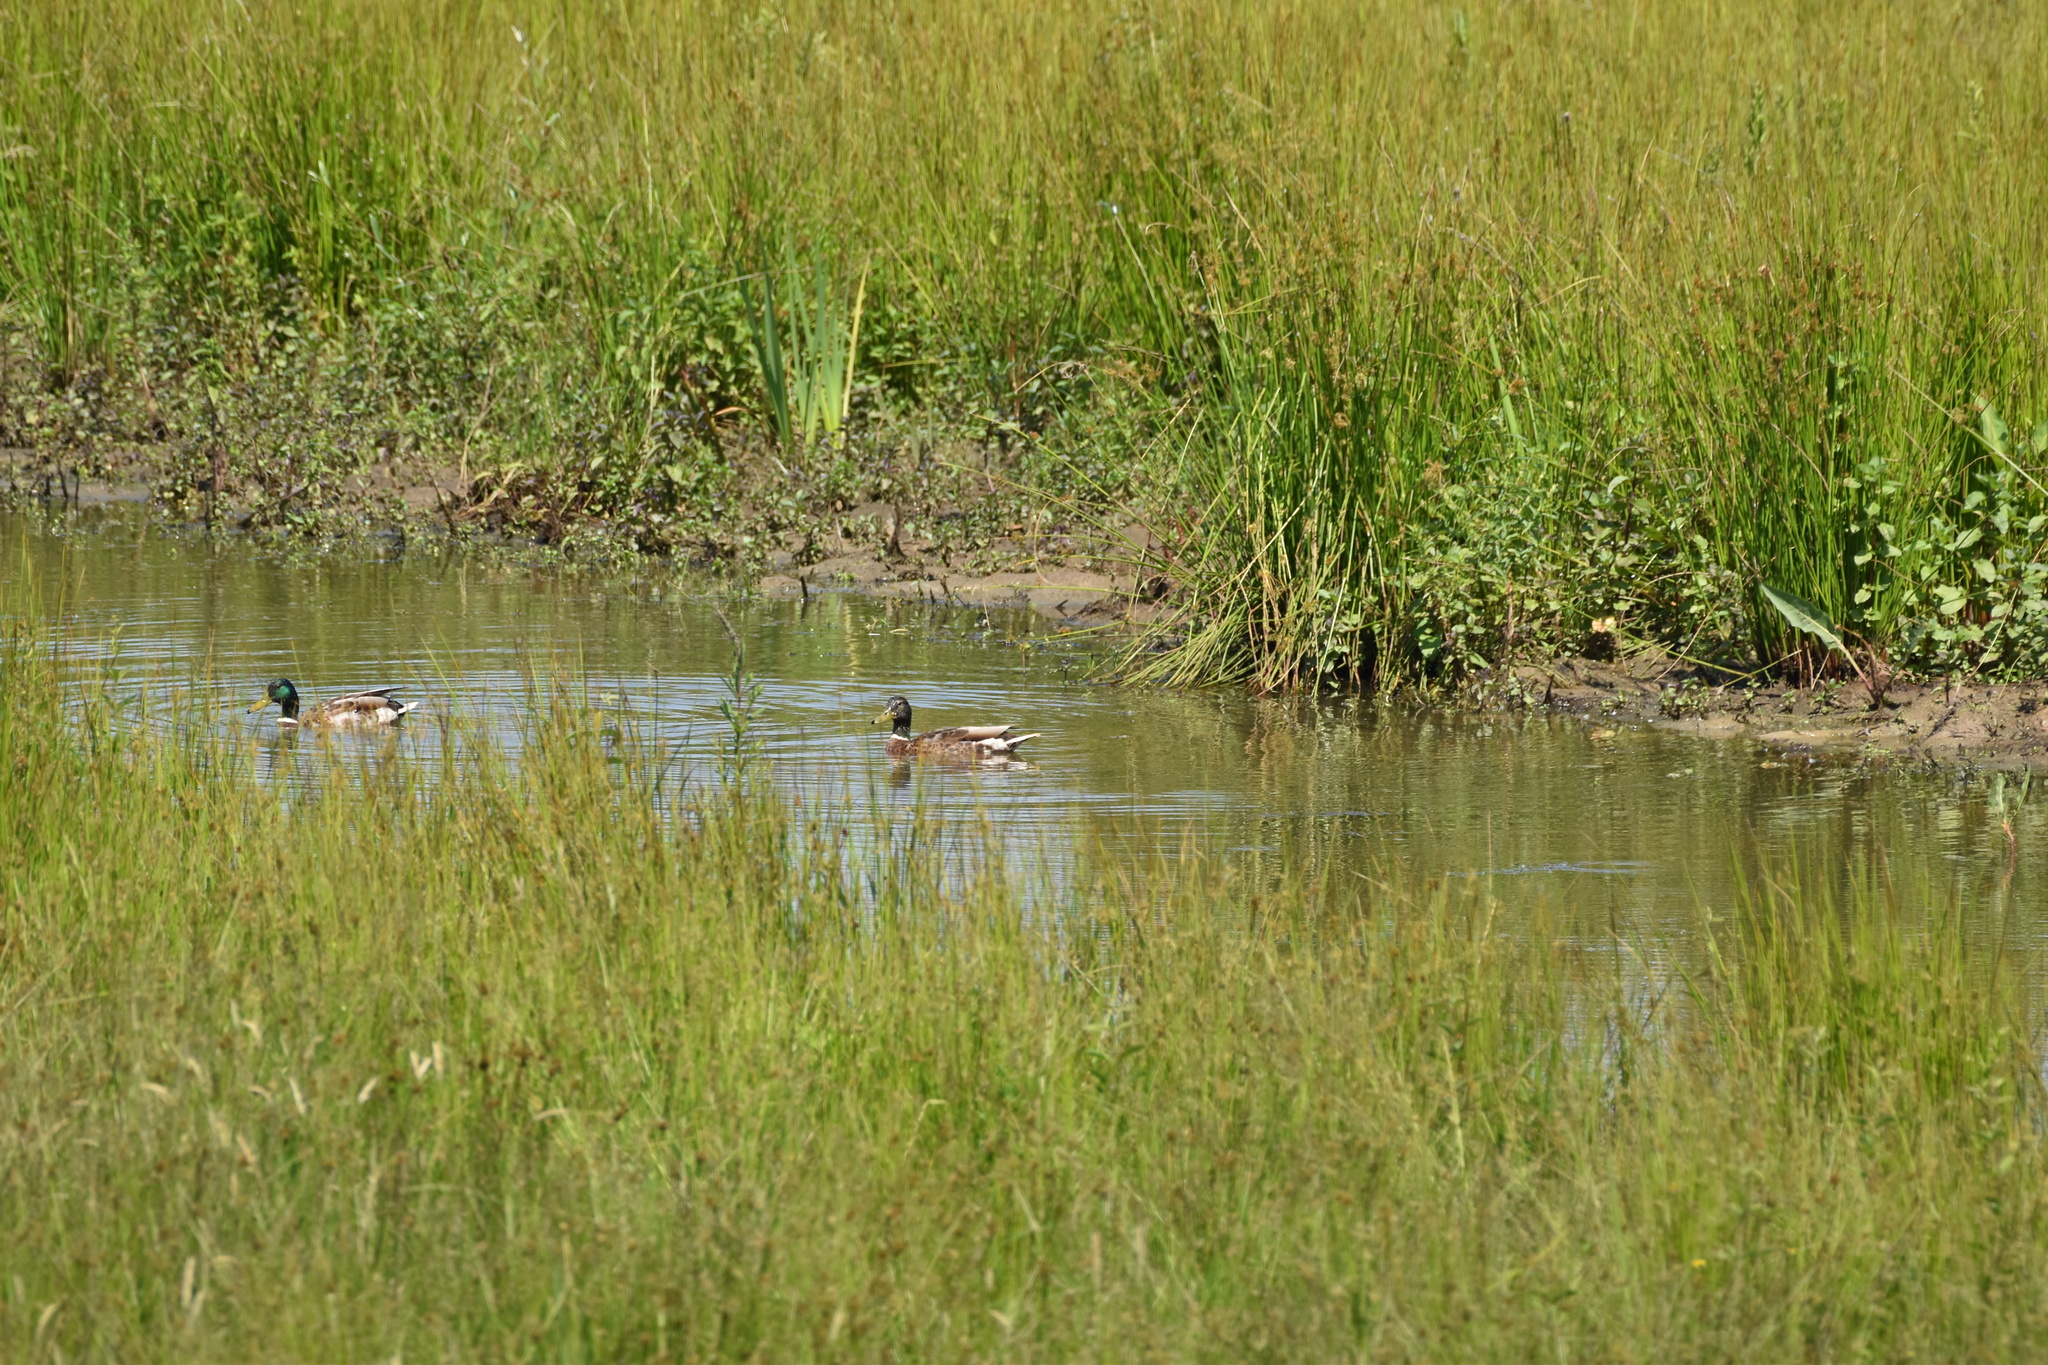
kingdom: Animalia
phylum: Chordata
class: Aves
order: Anseriformes
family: Anatidae
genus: Anas
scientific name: Anas platyrhynchos
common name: Mallard
